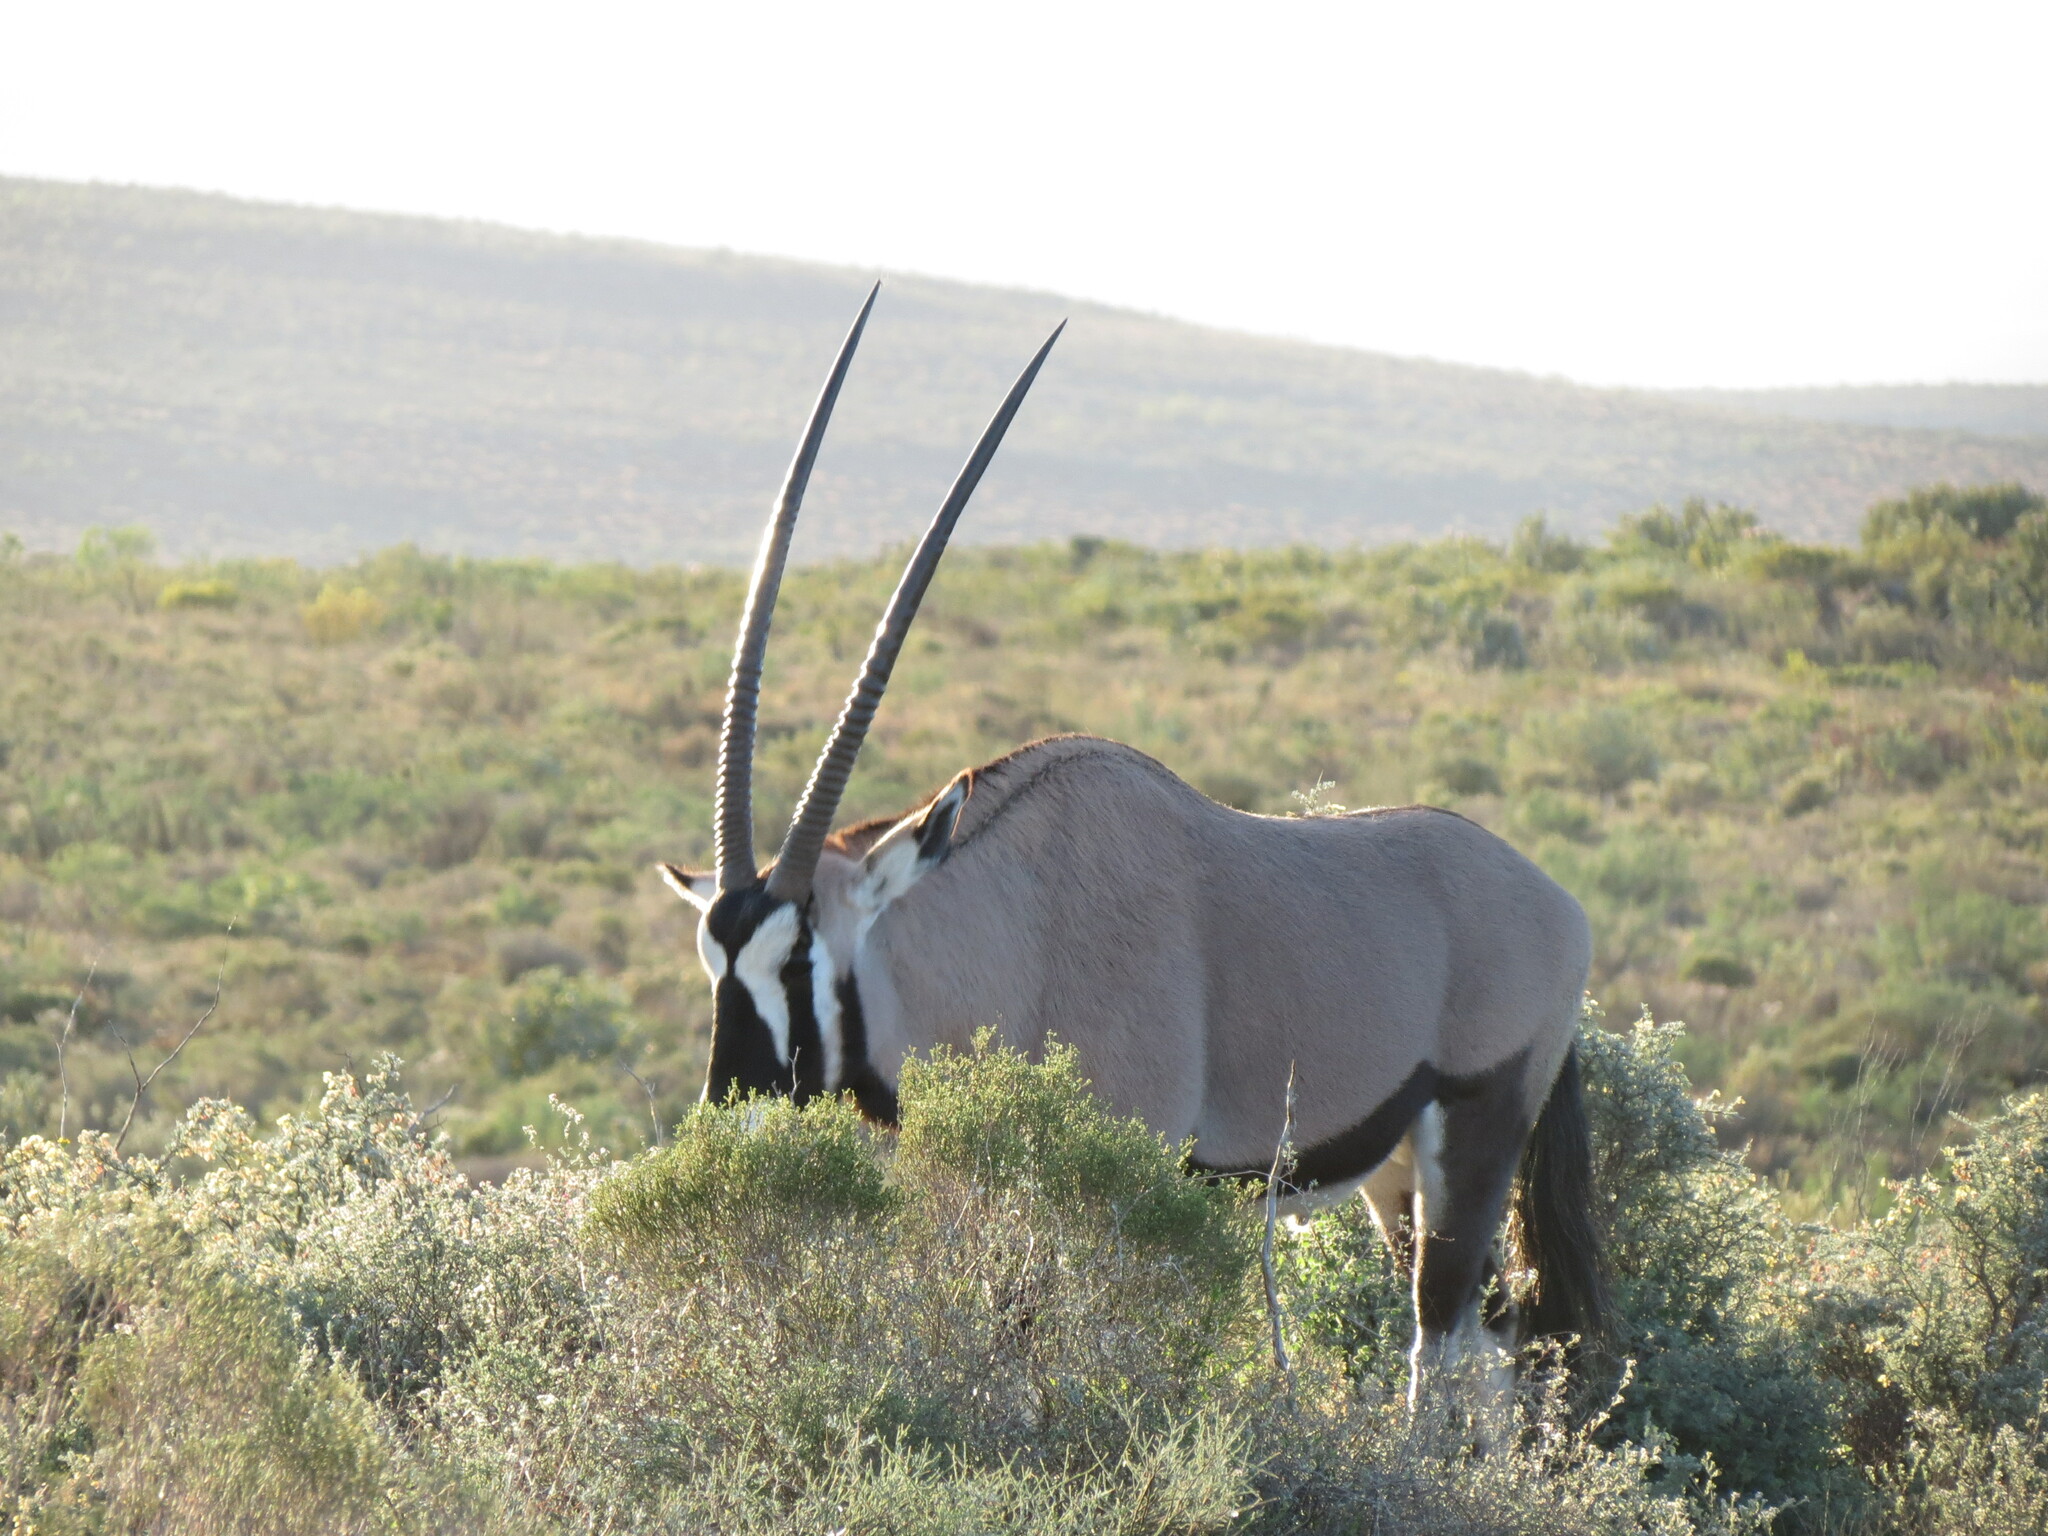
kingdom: Animalia
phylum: Chordata
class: Mammalia
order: Artiodactyla
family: Bovidae
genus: Oryx
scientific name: Oryx gazella
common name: Gemsbok
